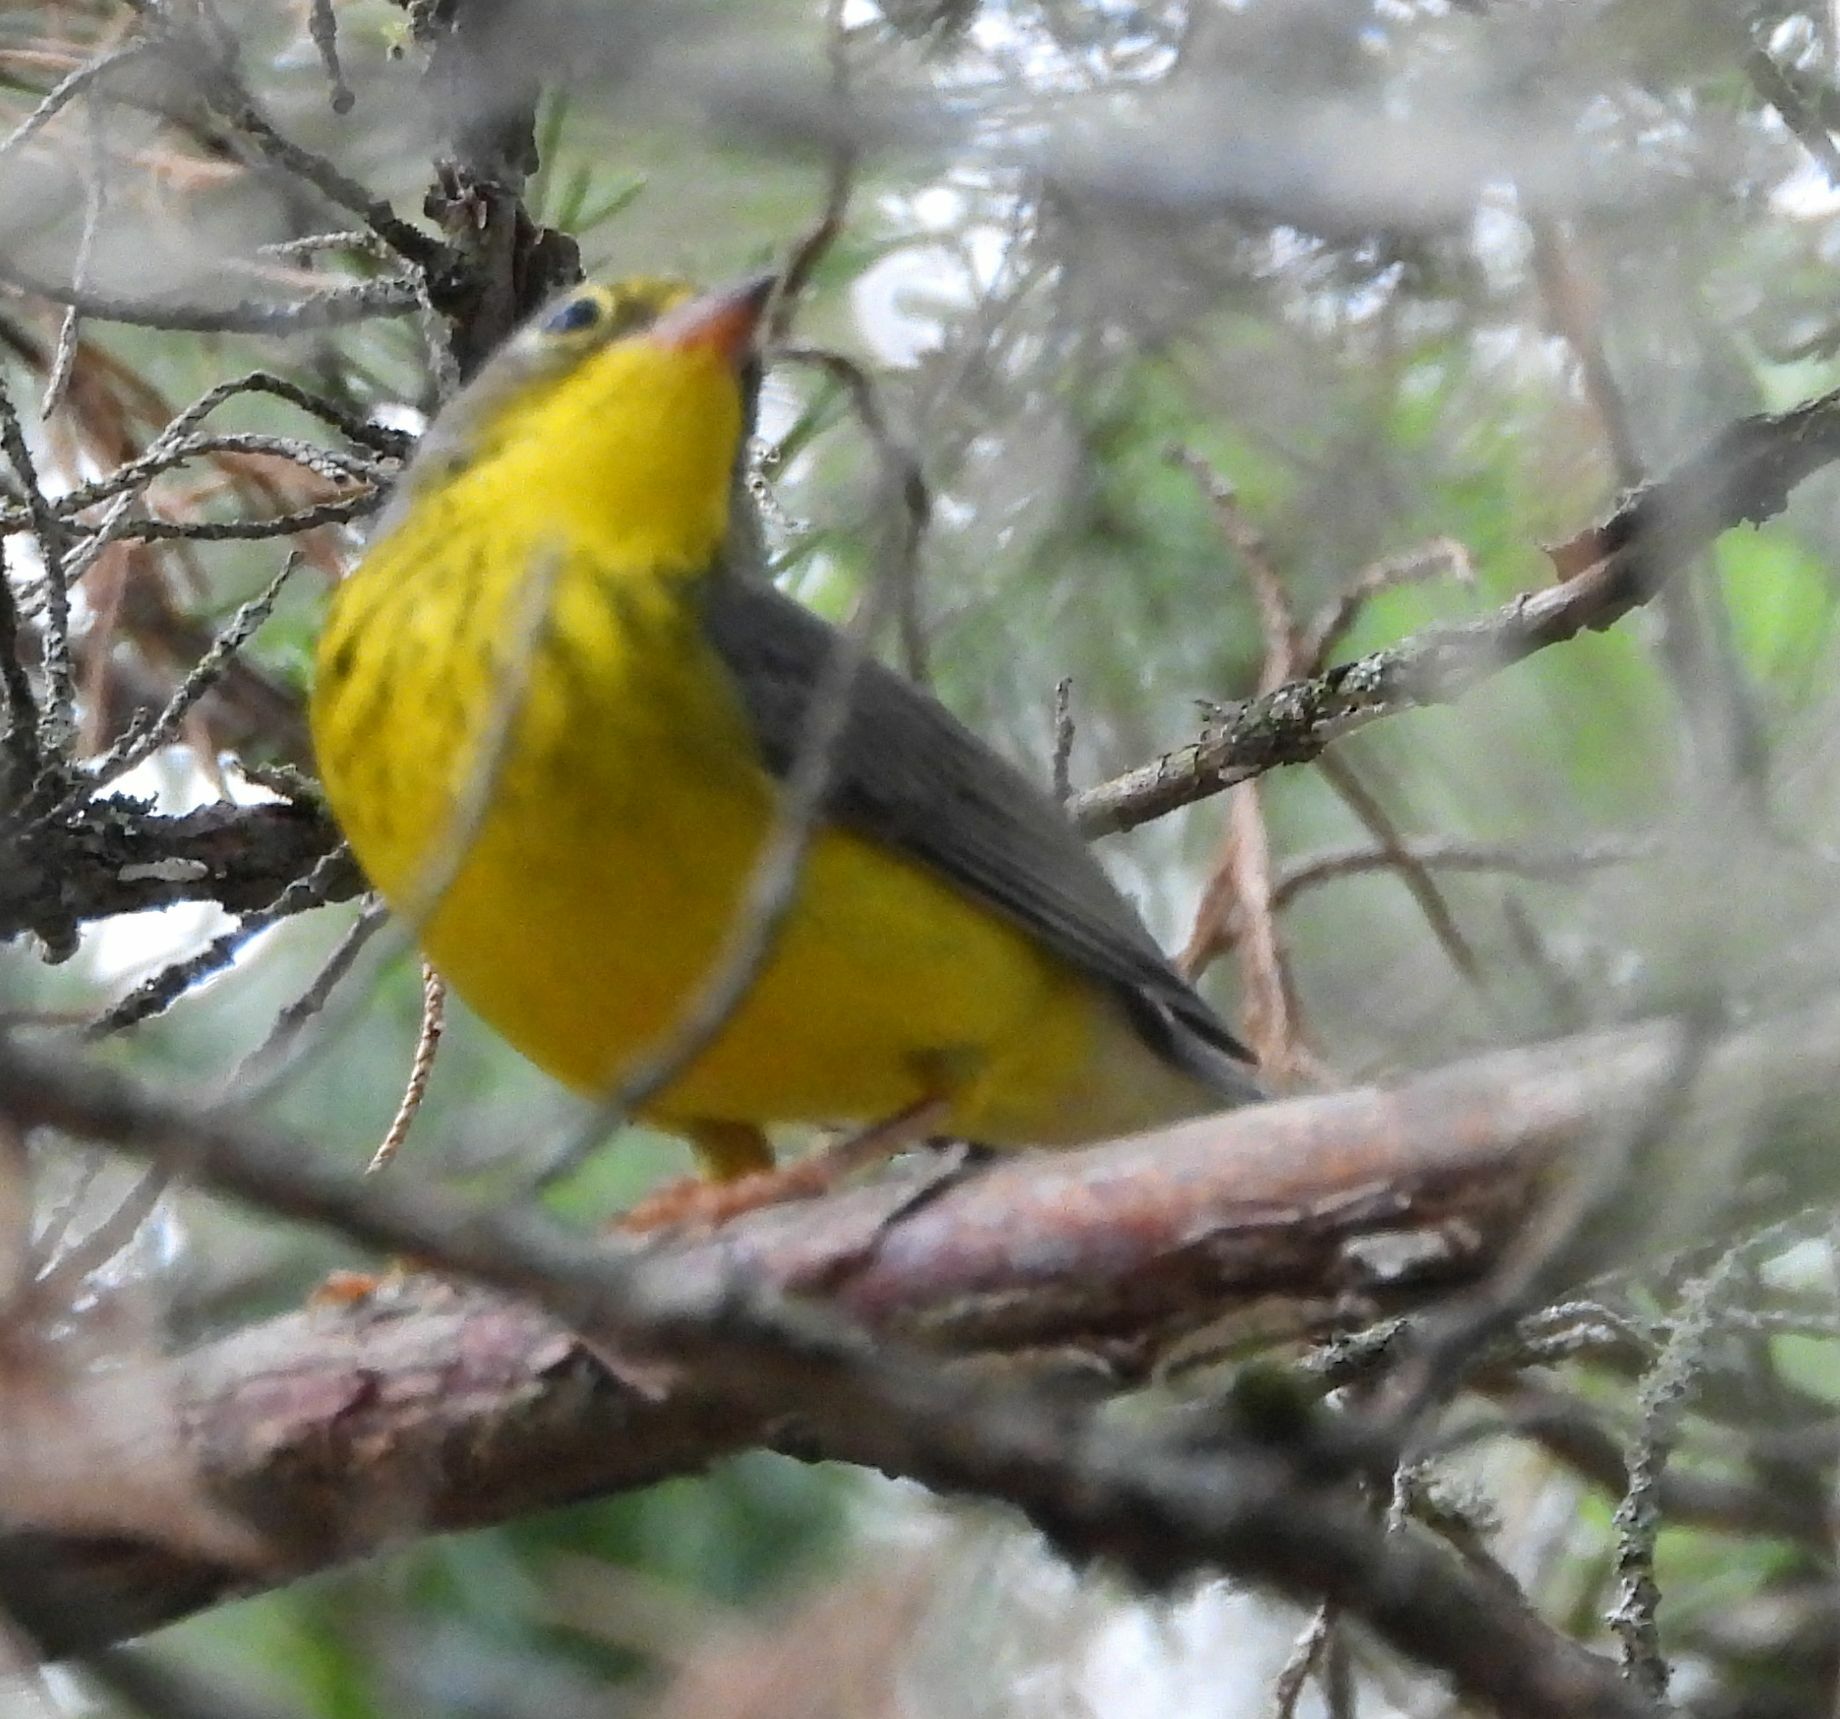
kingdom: Animalia
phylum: Chordata
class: Aves
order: Passeriformes
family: Parulidae
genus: Cardellina
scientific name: Cardellina canadensis
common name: Canada warbler
